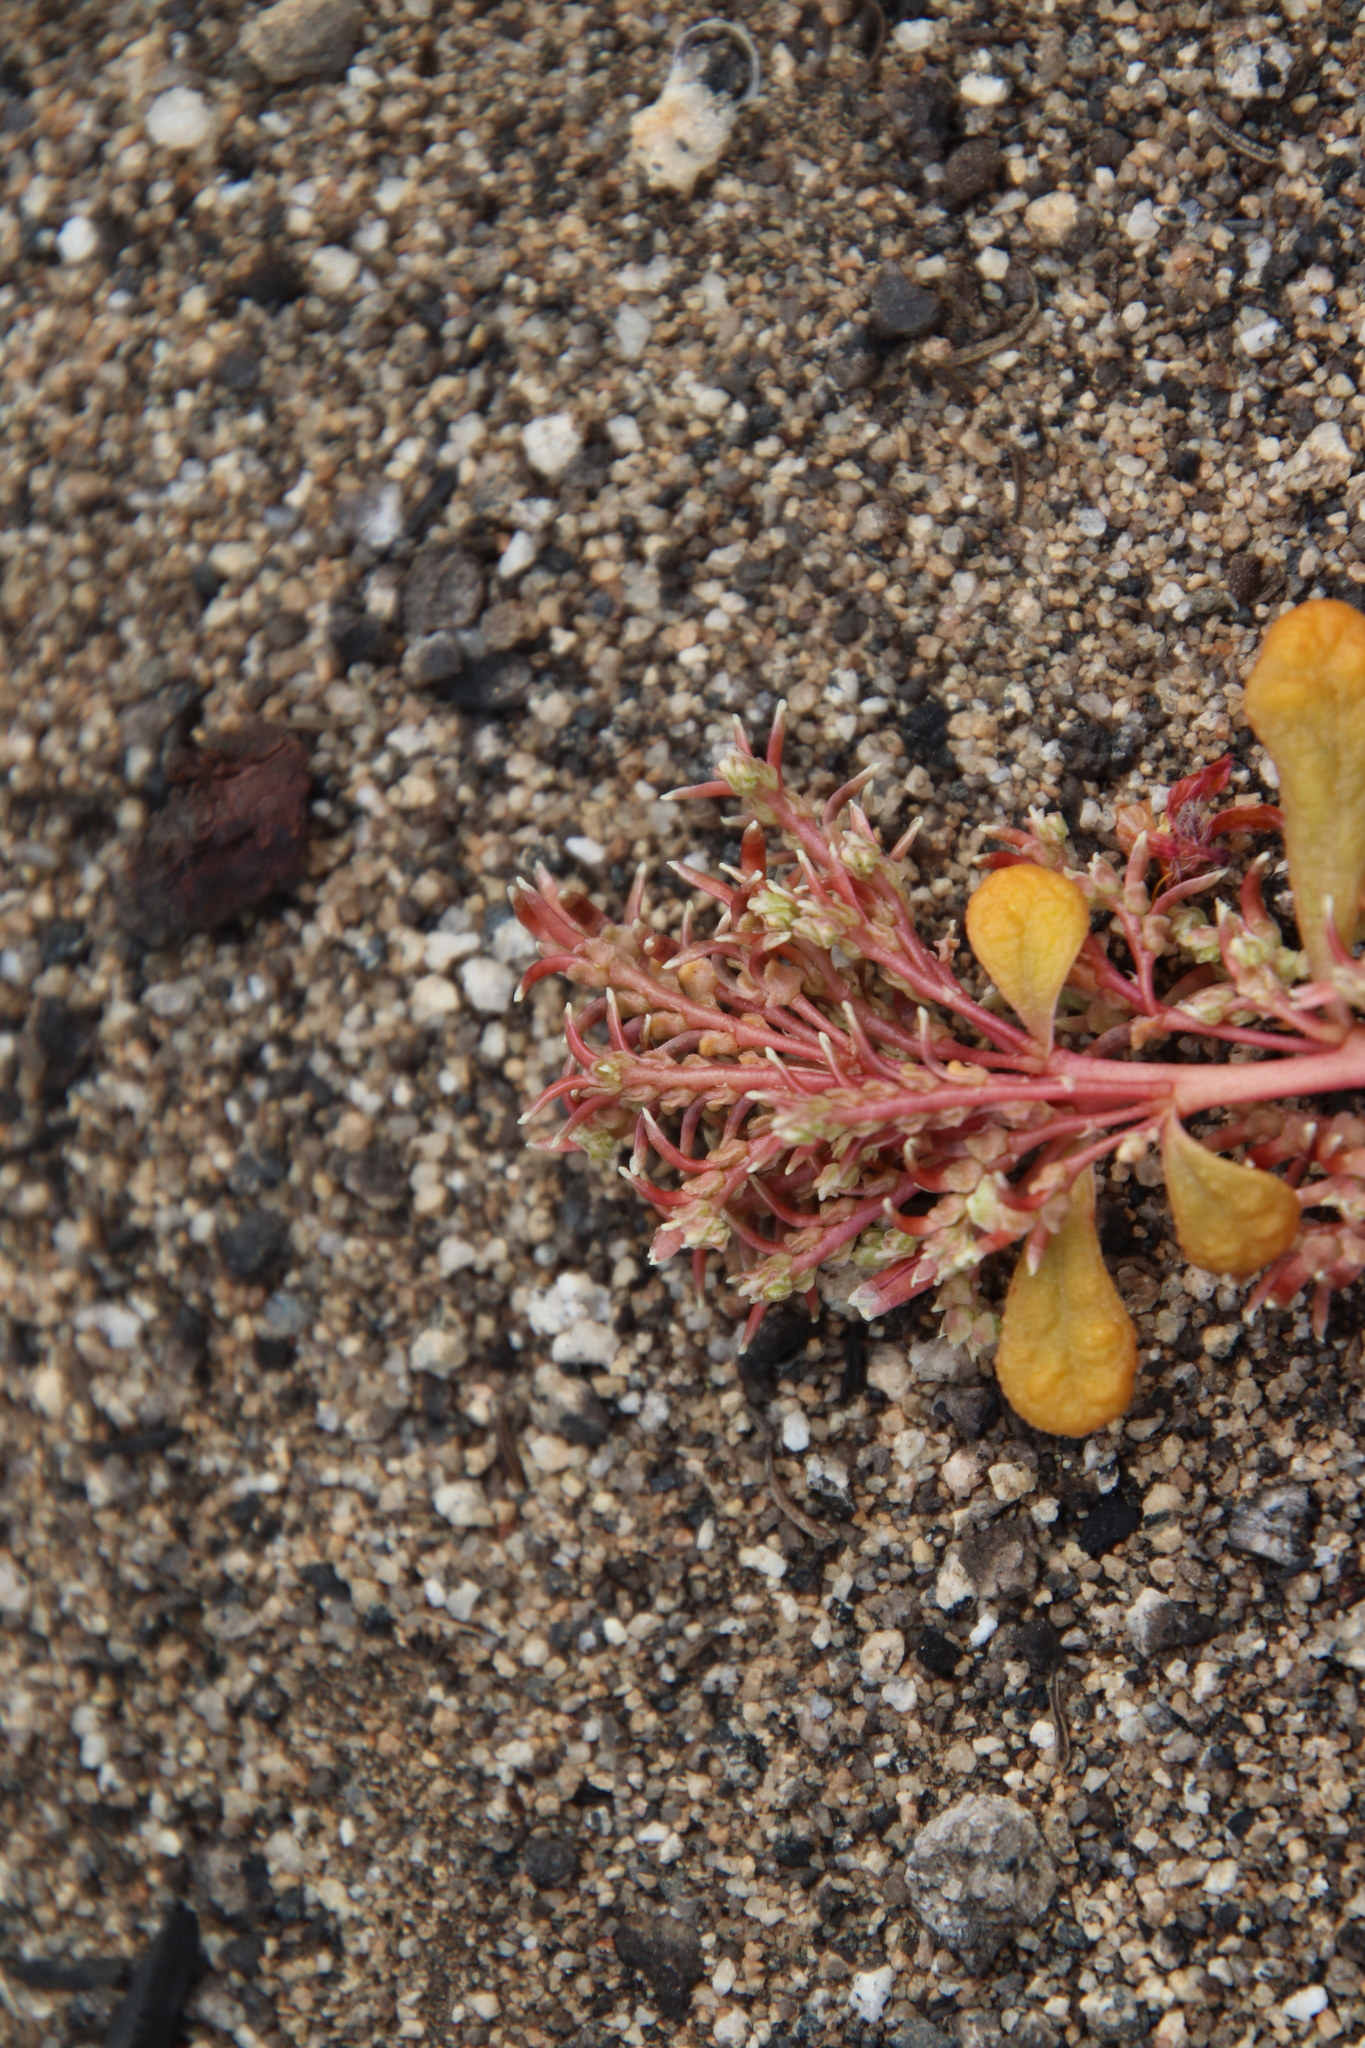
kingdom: Plantae
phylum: Tracheophyta
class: Magnoliopsida
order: Caryophyllales
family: Montiaceae
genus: Calyptridium
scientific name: Calyptridium monandrum
